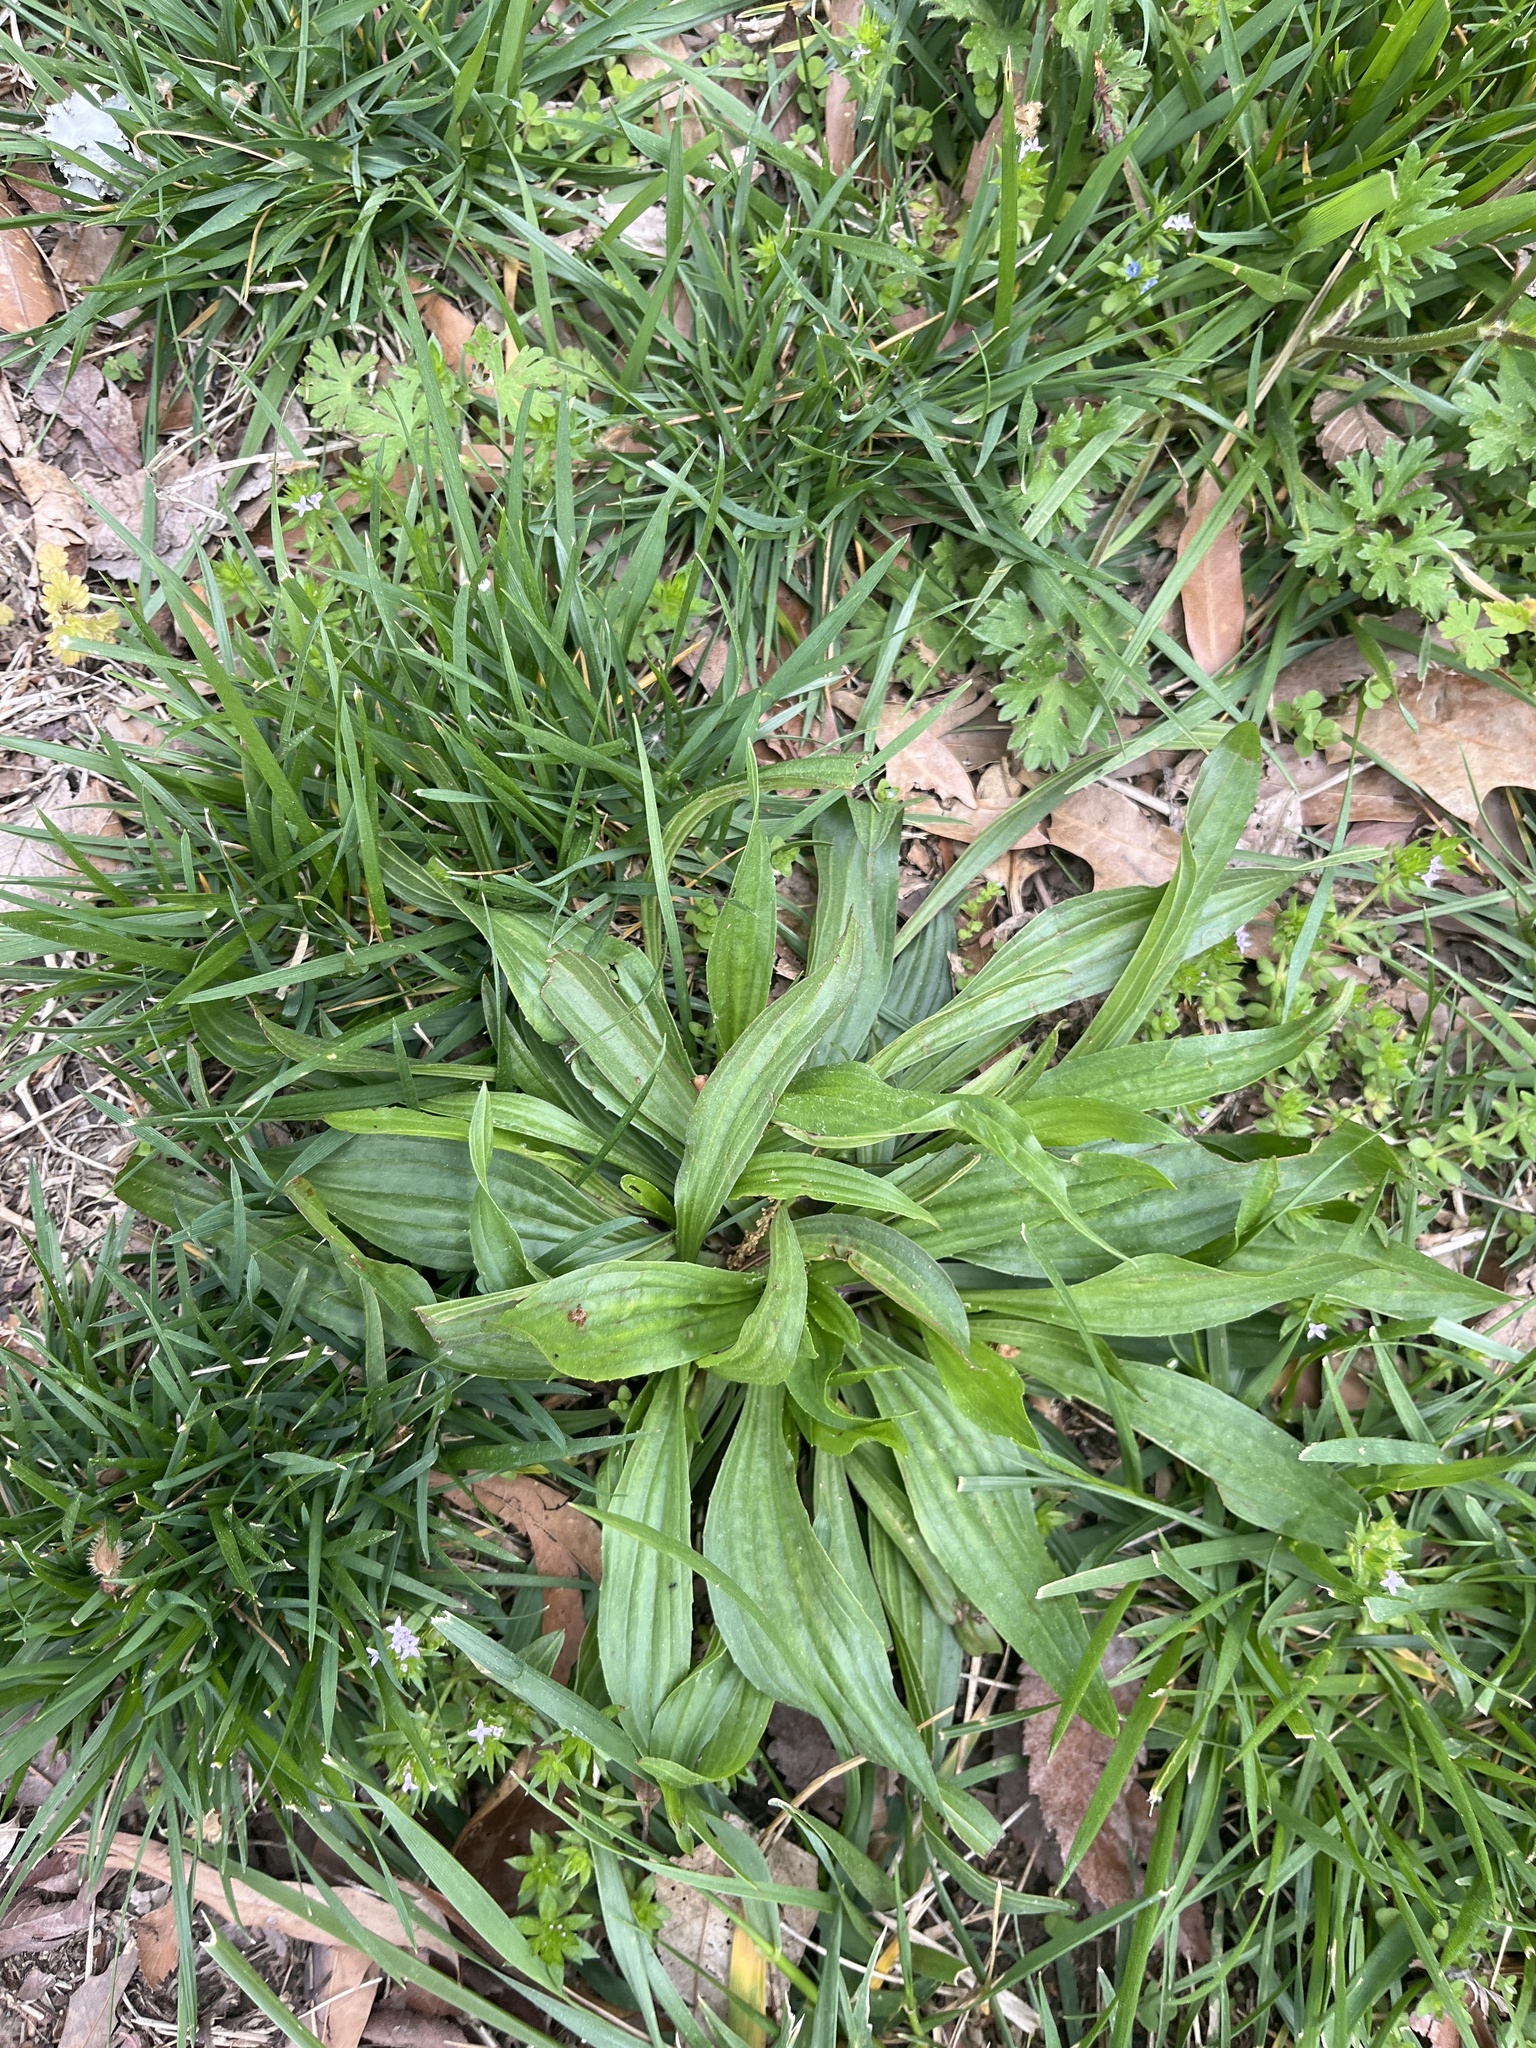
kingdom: Plantae
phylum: Tracheophyta
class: Magnoliopsida
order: Lamiales
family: Plantaginaceae
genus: Plantago
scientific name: Plantago lanceolata
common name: Ribwort plantain
